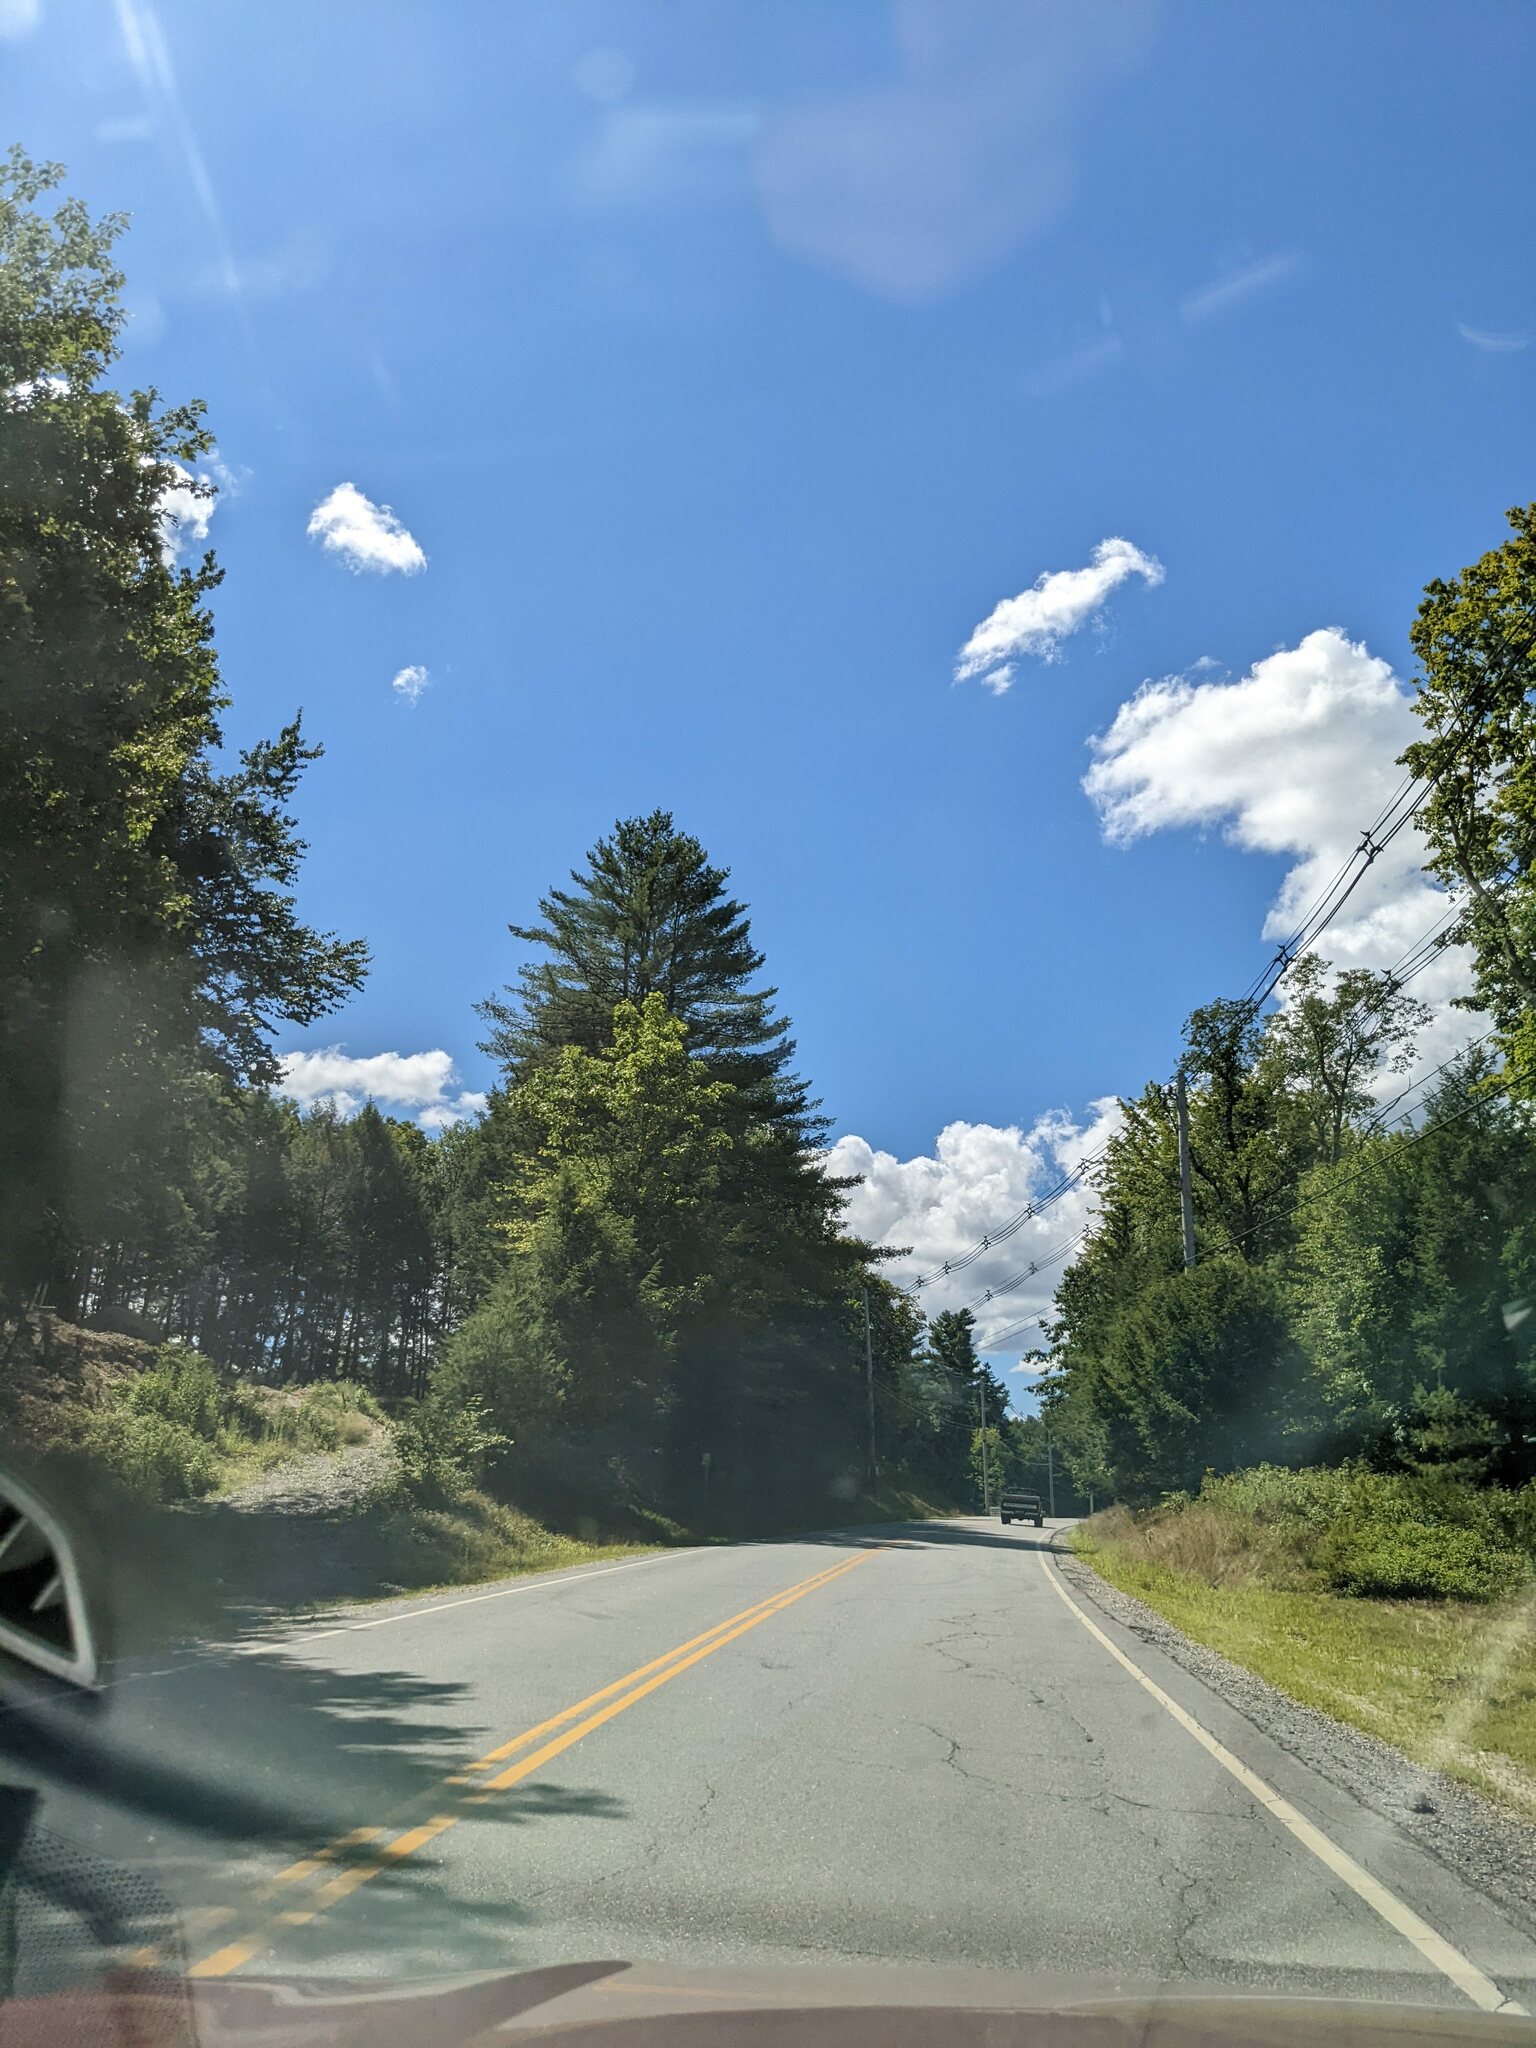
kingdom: Plantae
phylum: Tracheophyta
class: Pinopsida
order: Pinales
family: Pinaceae
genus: Pinus
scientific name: Pinus strobus
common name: Weymouth pine
